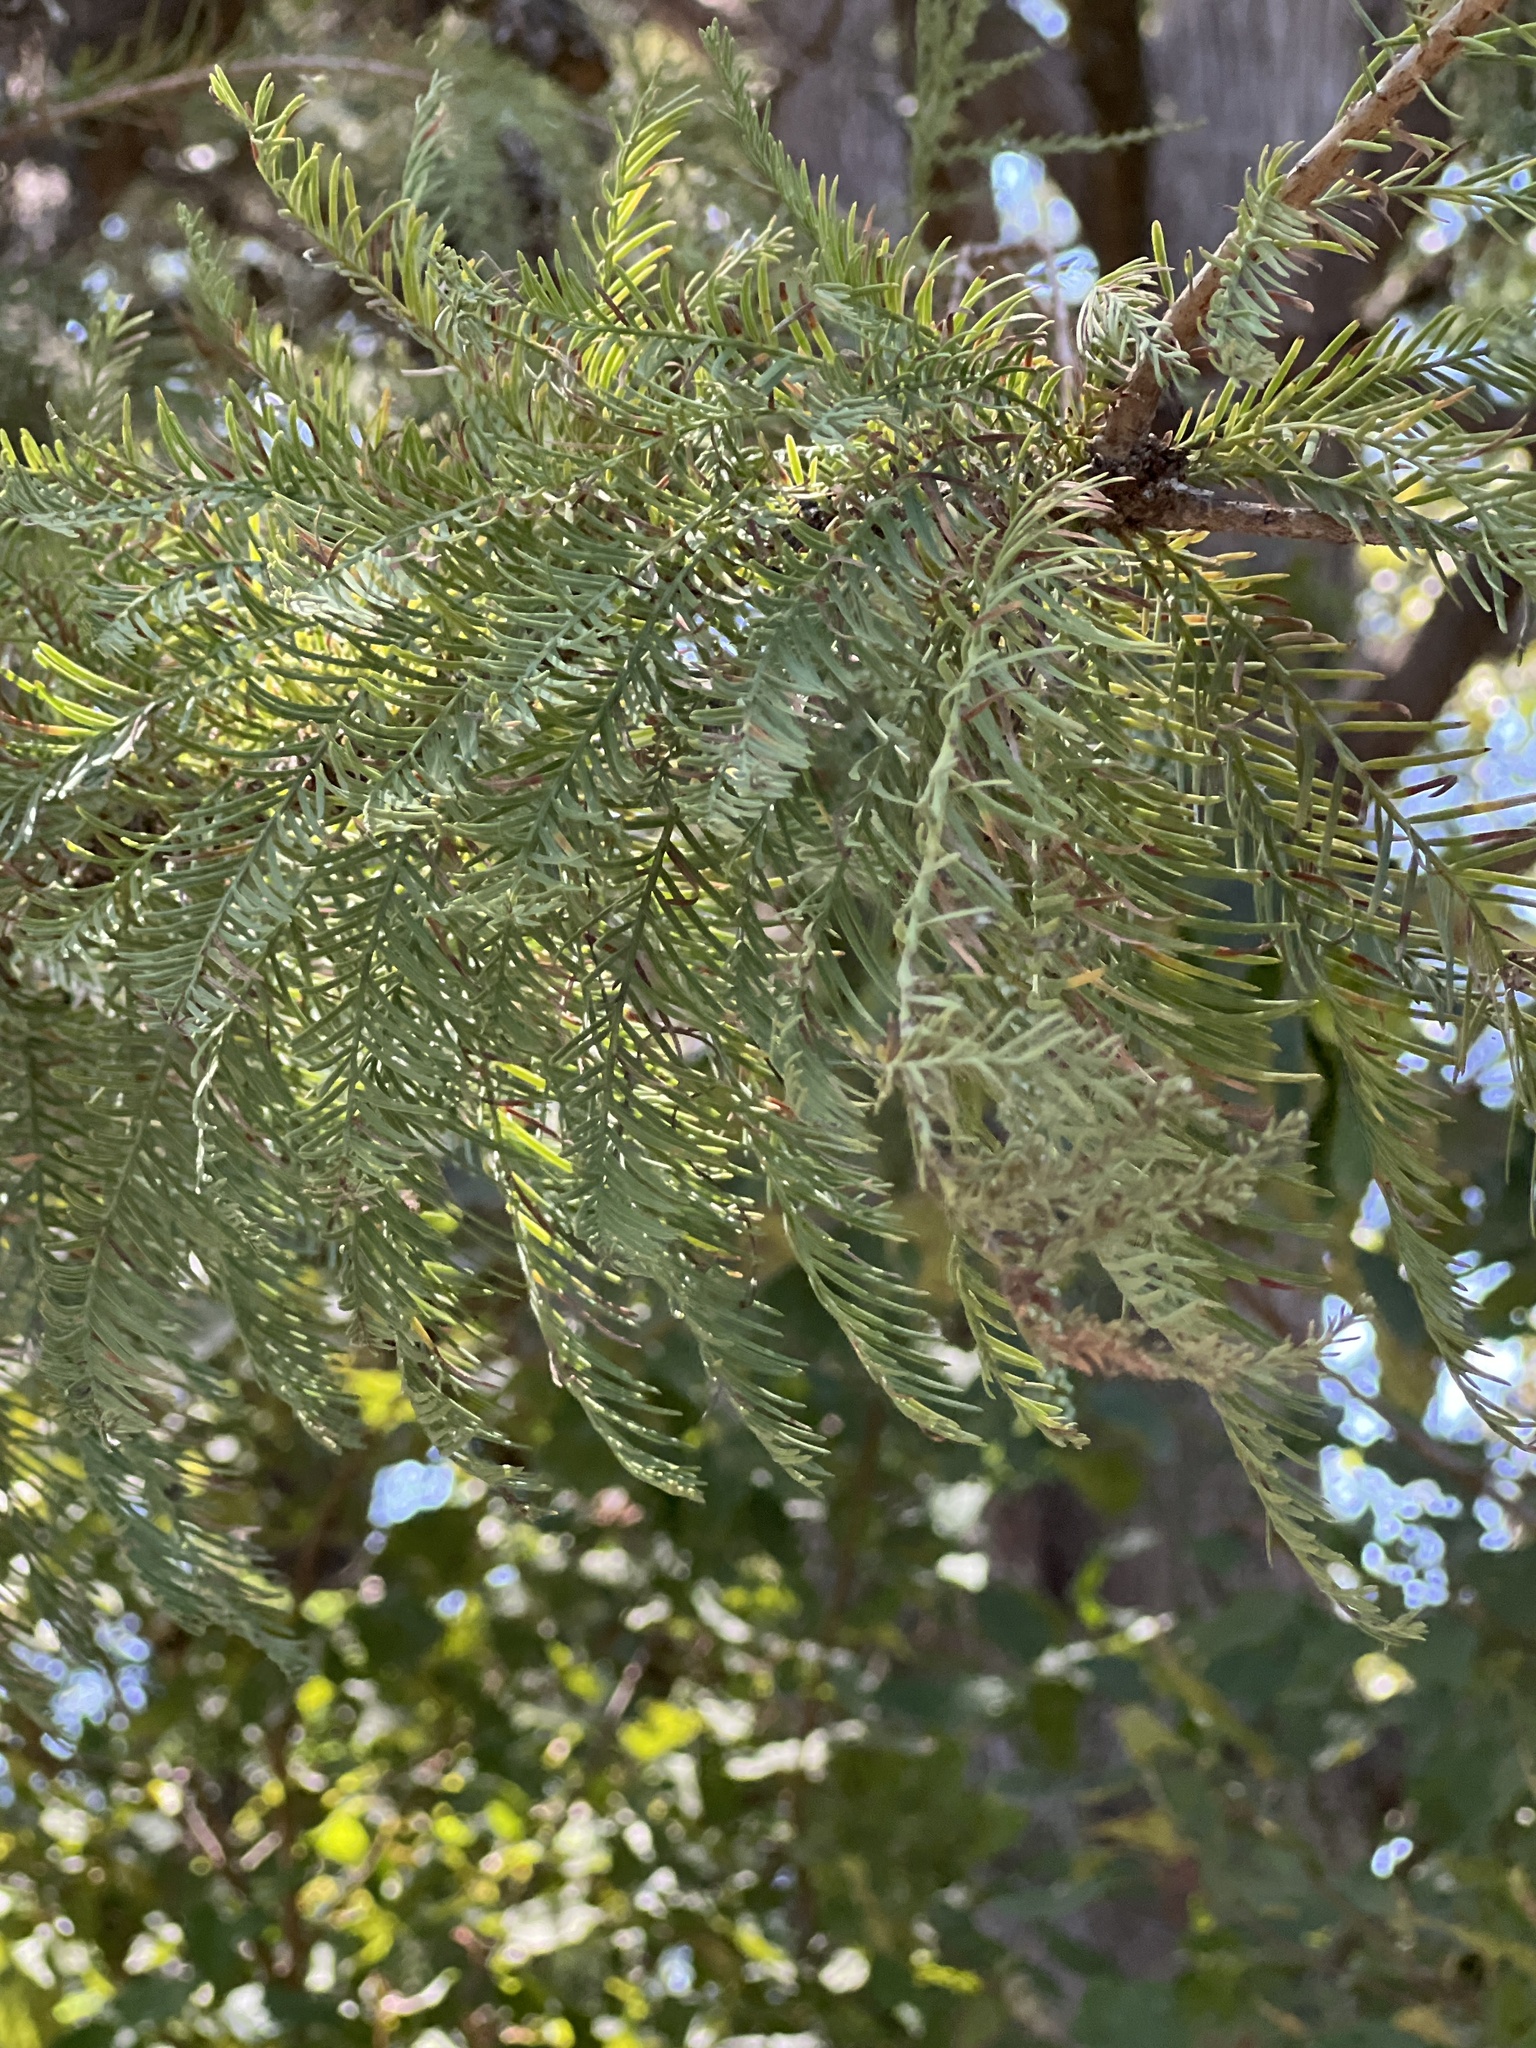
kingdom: Plantae
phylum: Tracheophyta
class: Pinopsida
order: Pinales
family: Cupressaceae
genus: Taxodium
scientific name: Taxodium distichum
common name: Bald cypress
